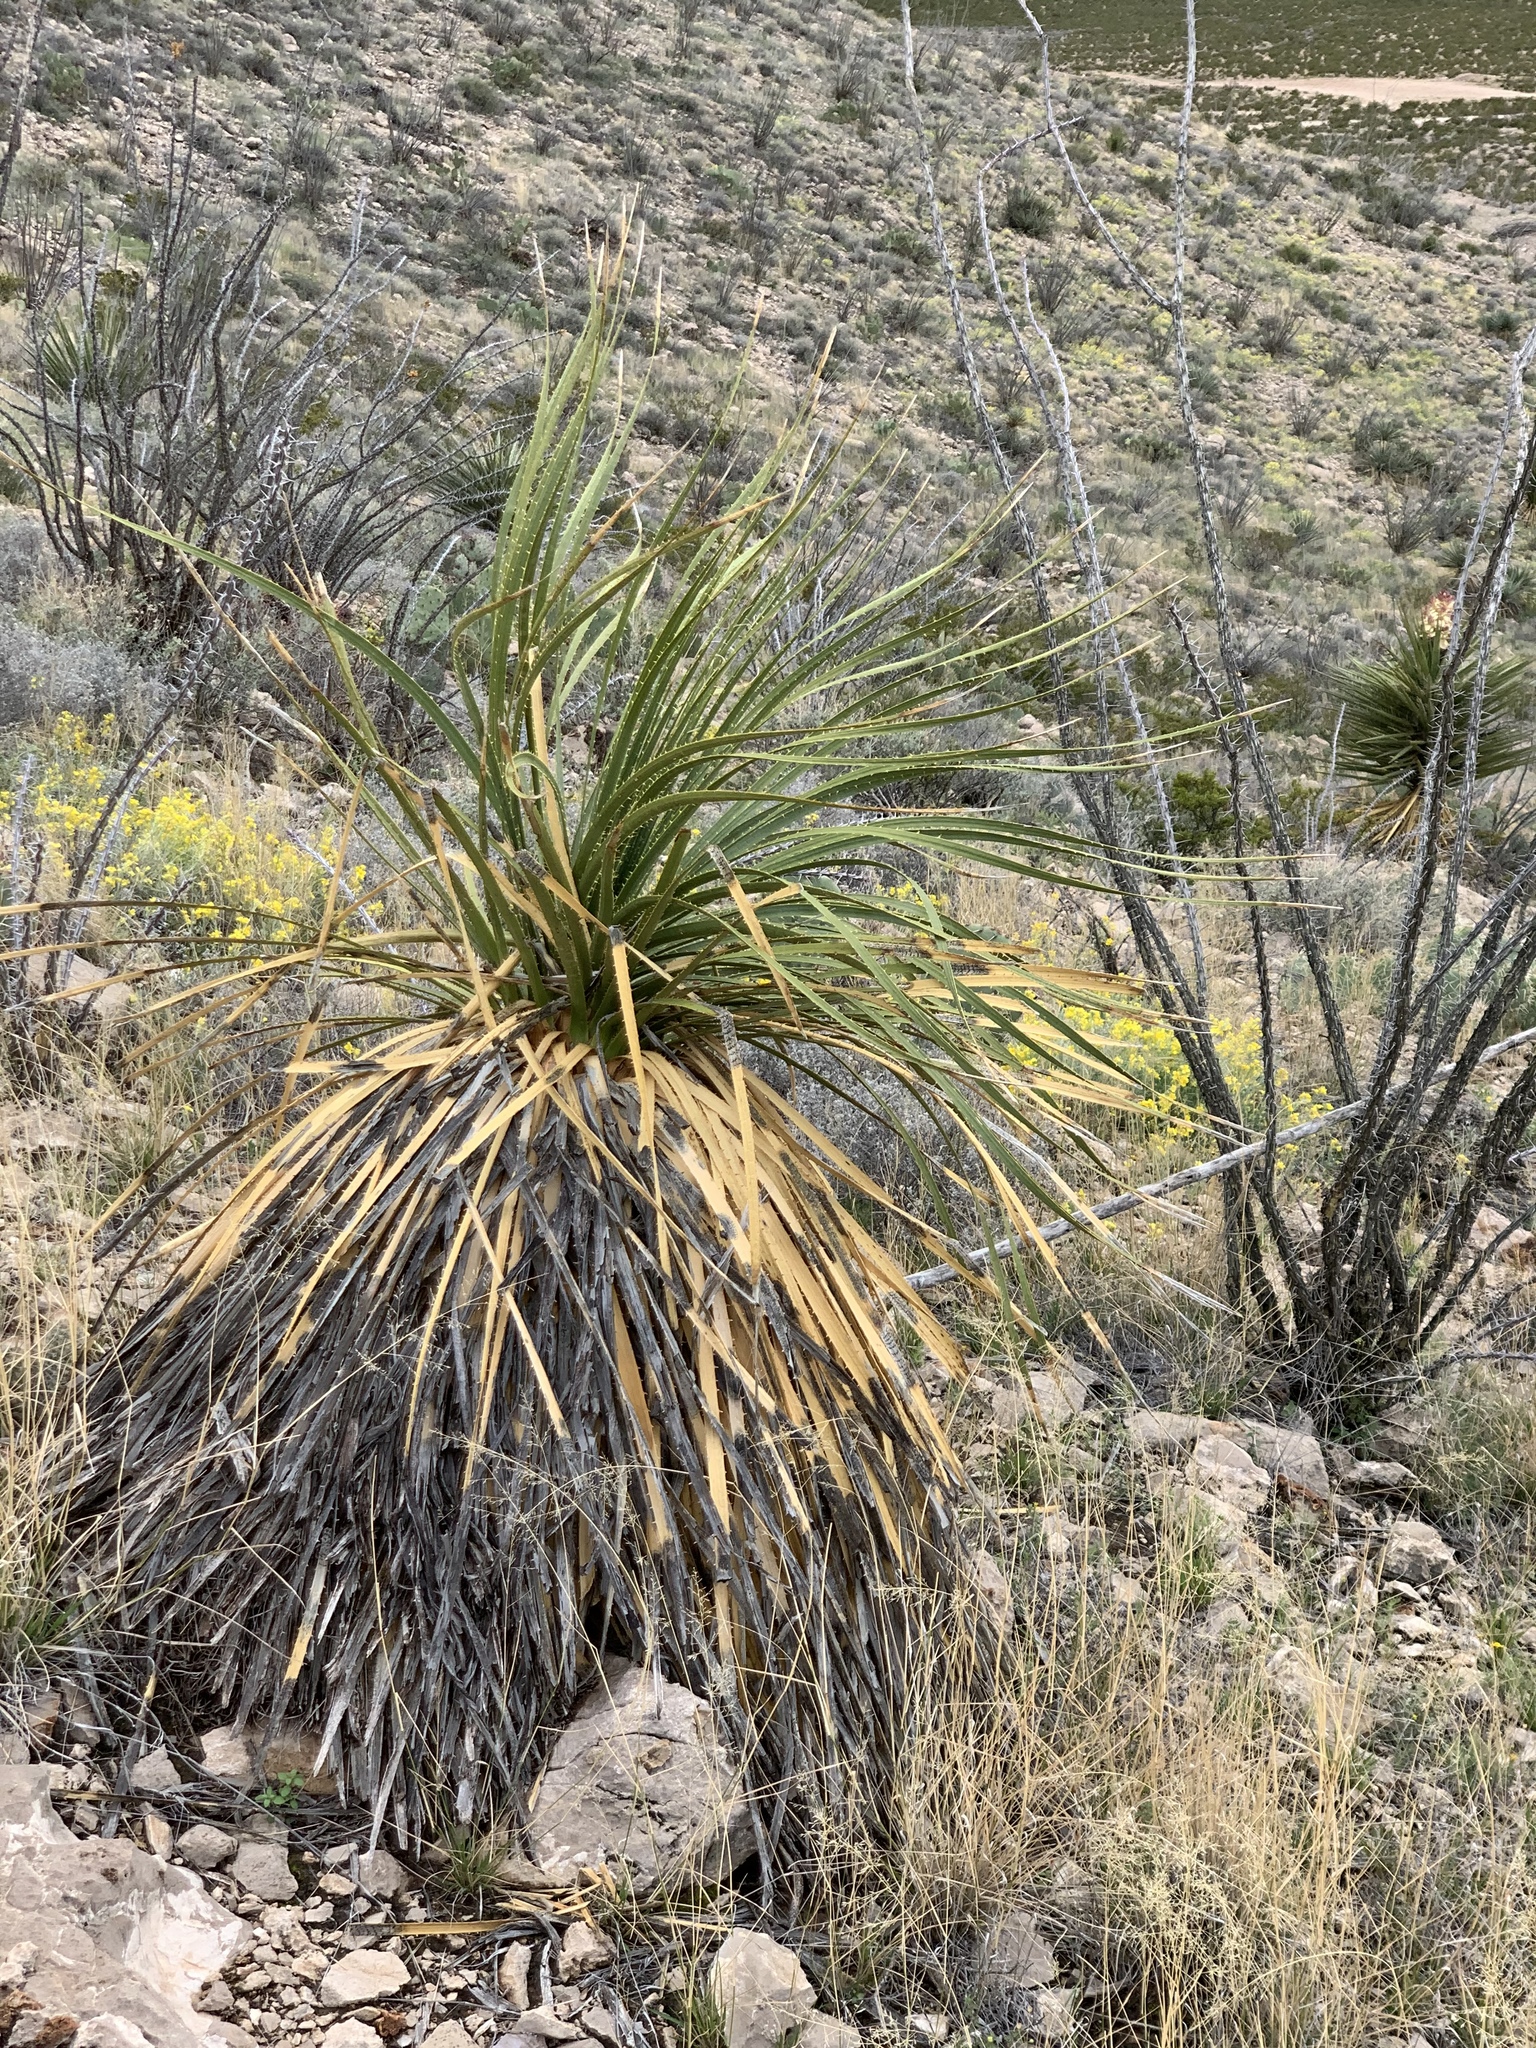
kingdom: Plantae
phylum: Tracheophyta
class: Liliopsida
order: Asparagales
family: Asparagaceae
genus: Dasylirion
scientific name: Dasylirion leiophyllum
